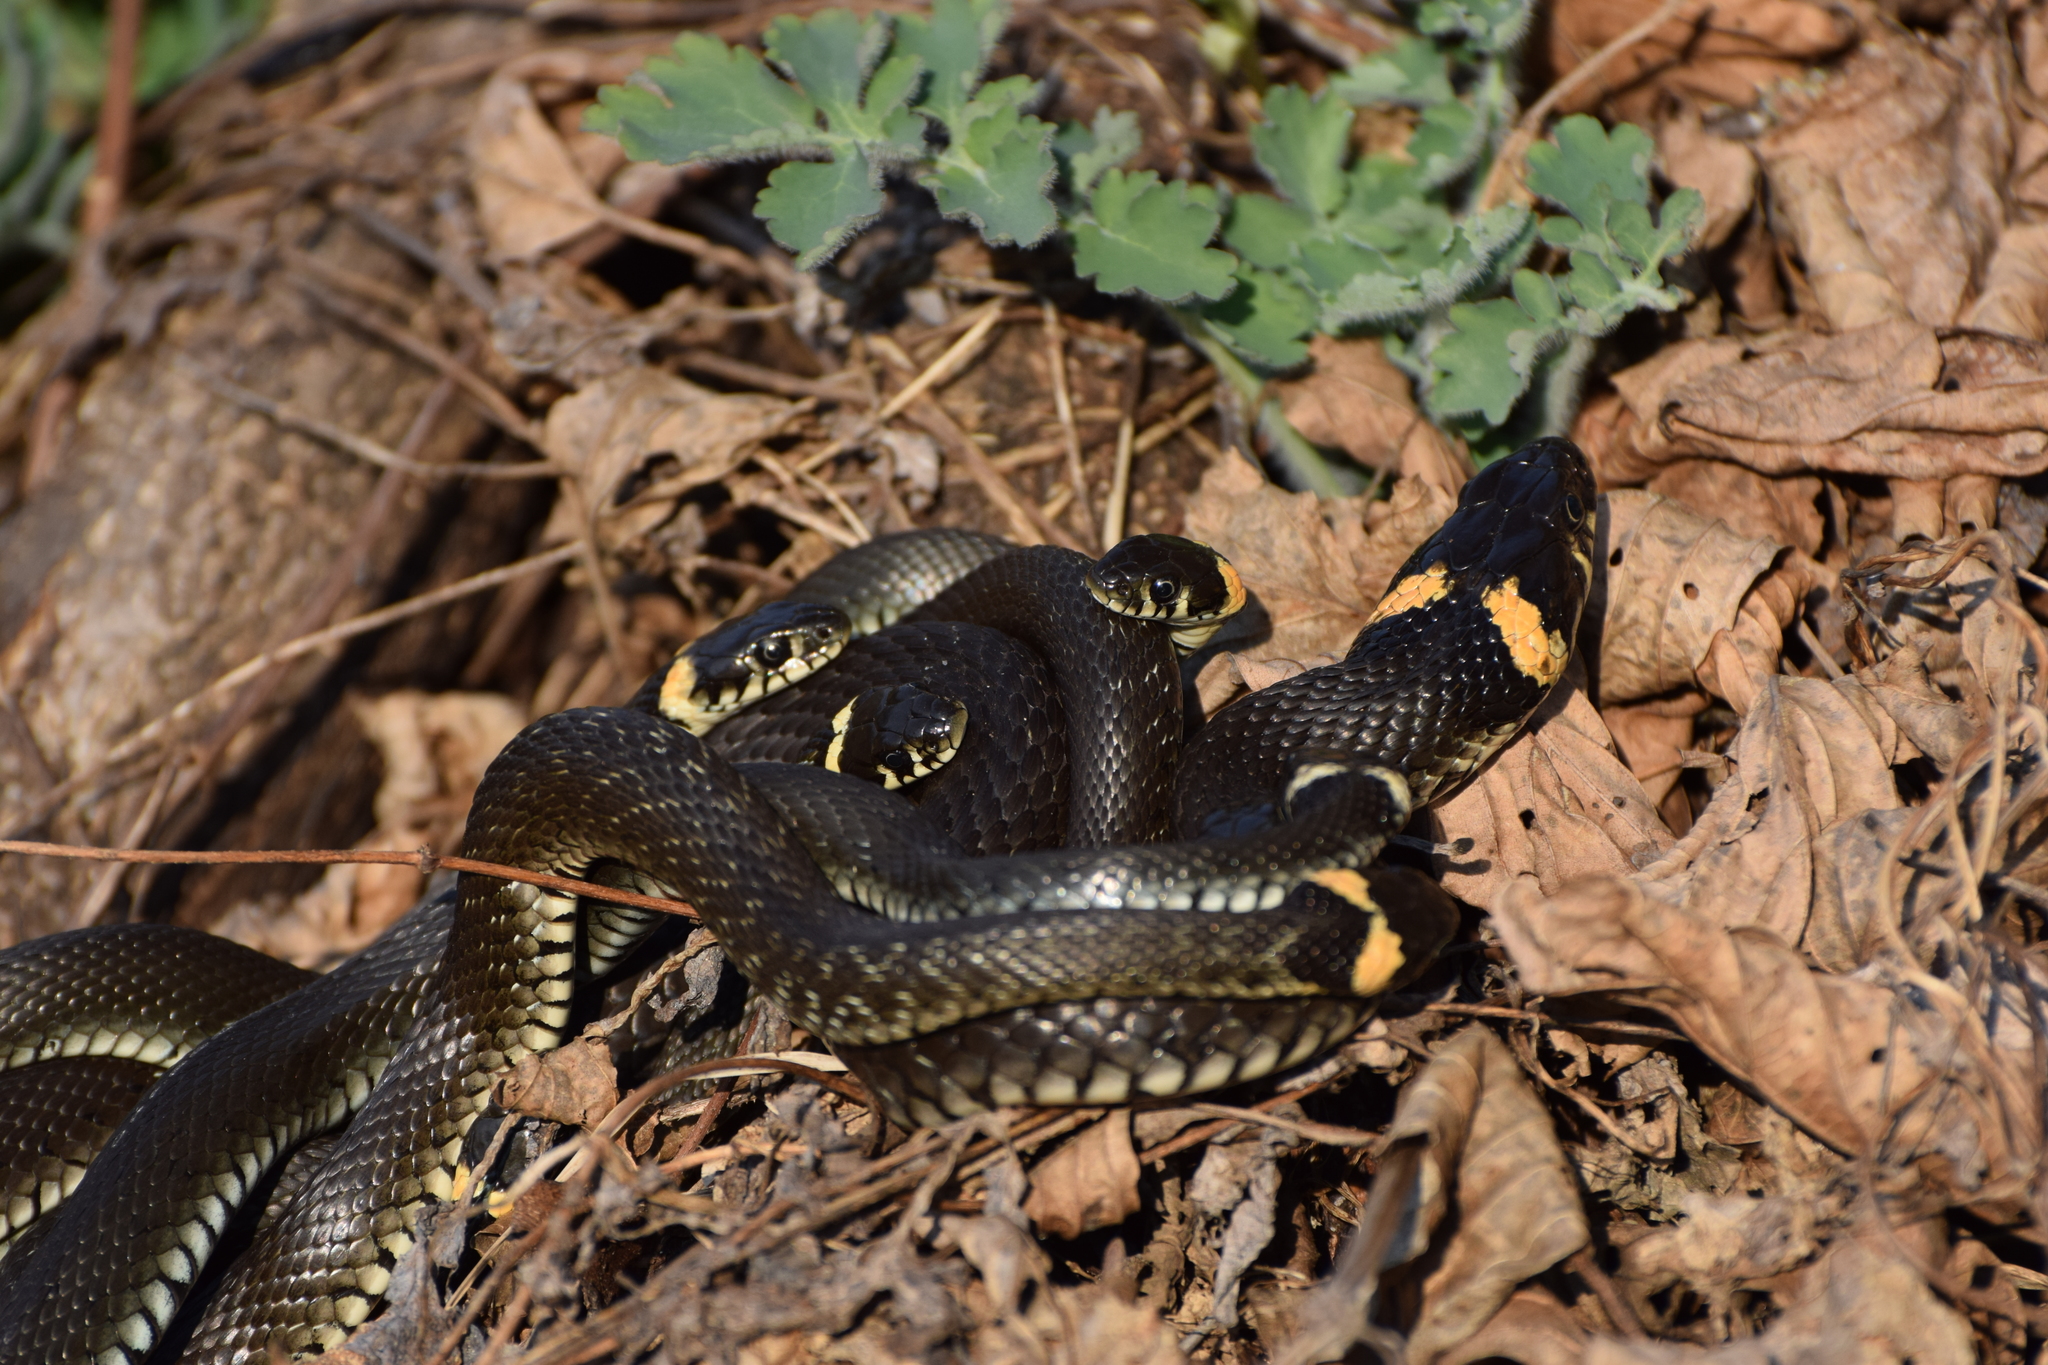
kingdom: Animalia
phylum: Chordata
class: Squamata
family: Colubridae
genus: Natrix
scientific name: Natrix natrix
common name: Grass snake
